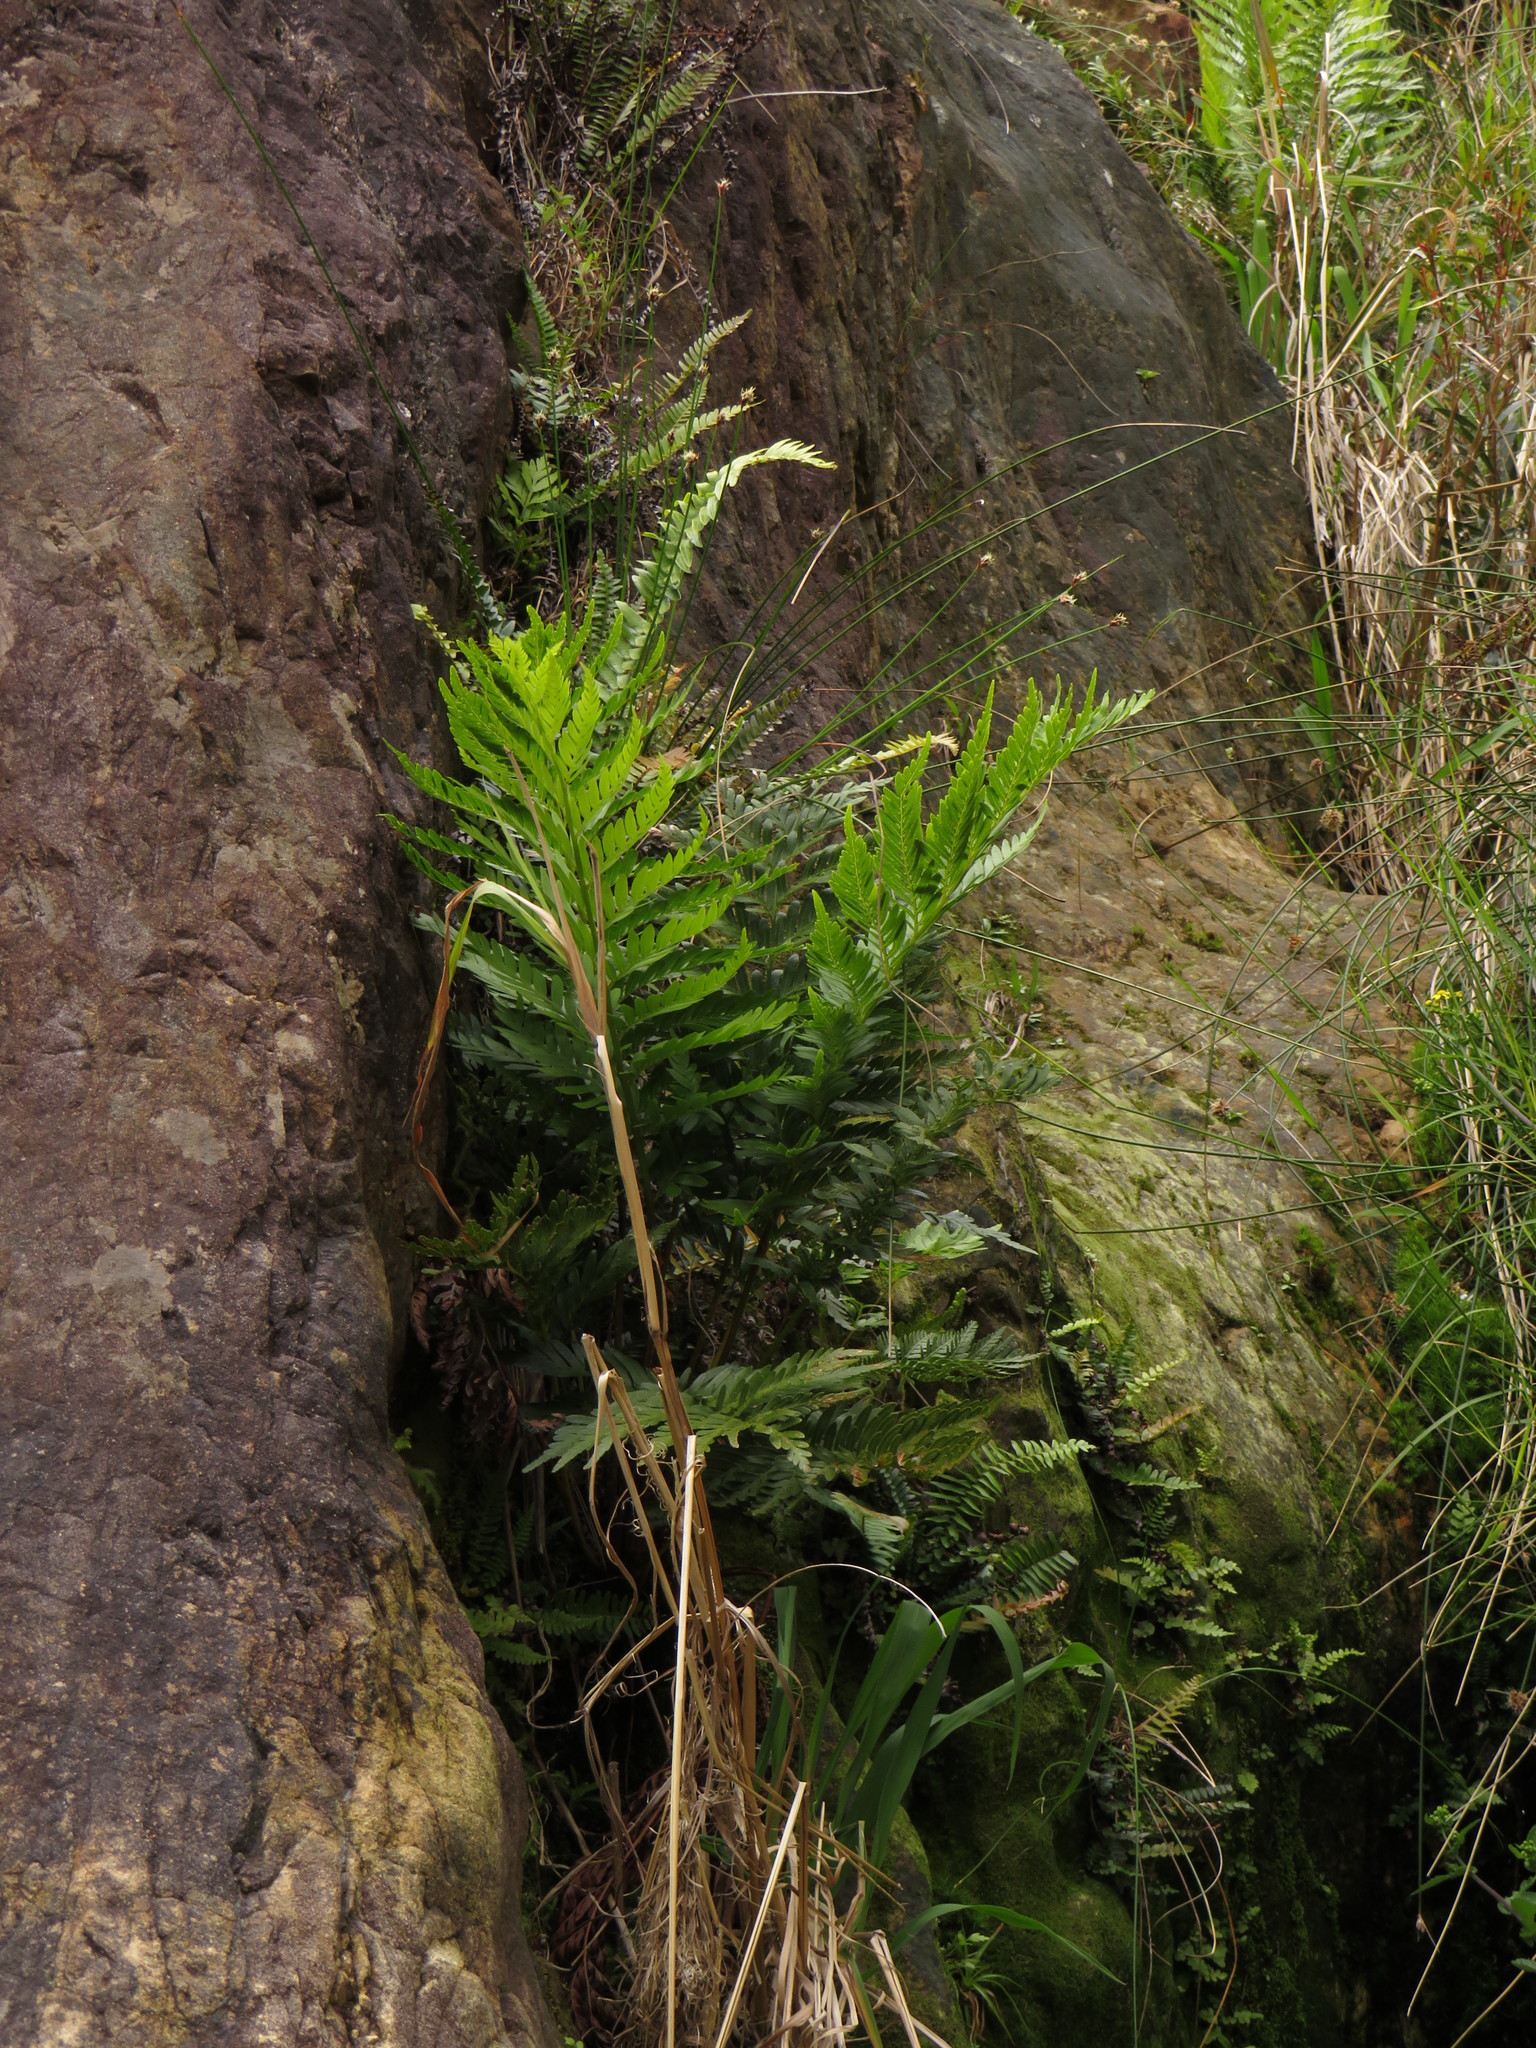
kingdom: Plantae
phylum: Tracheophyta
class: Polypodiopsida
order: Osmundales
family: Osmundaceae
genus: Todea
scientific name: Todea barbara
